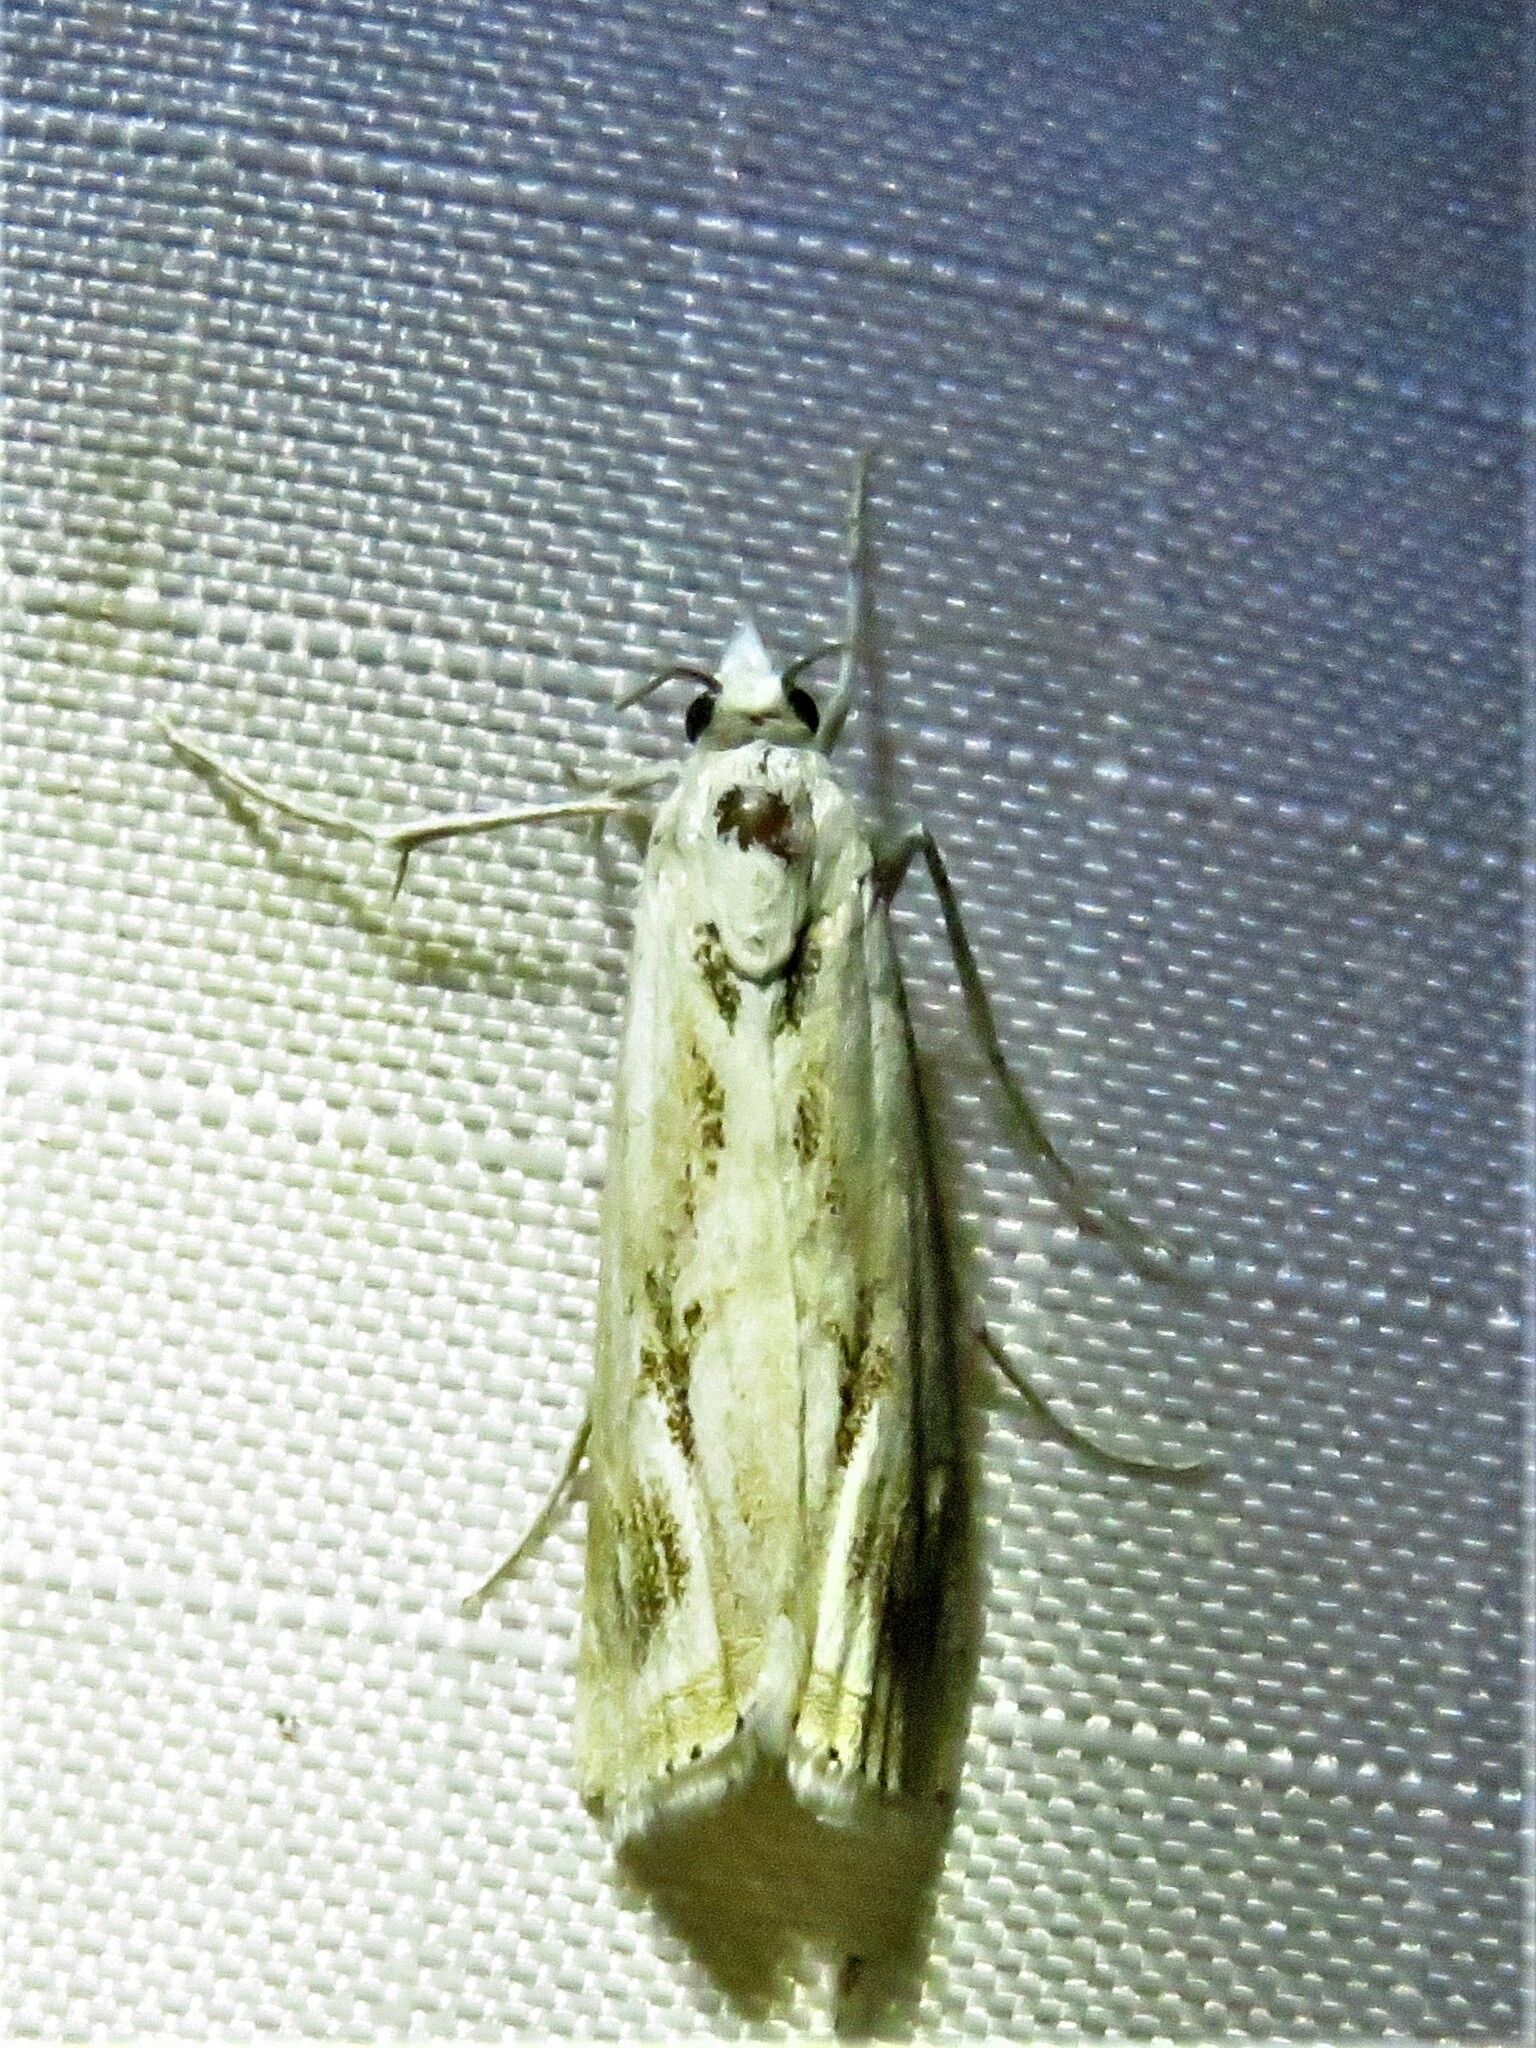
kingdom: Animalia
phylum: Arthropoda
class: Insecta
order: Lepidoptera
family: Crambidae
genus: Parapediasia
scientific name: Parapediasia hulstellus
